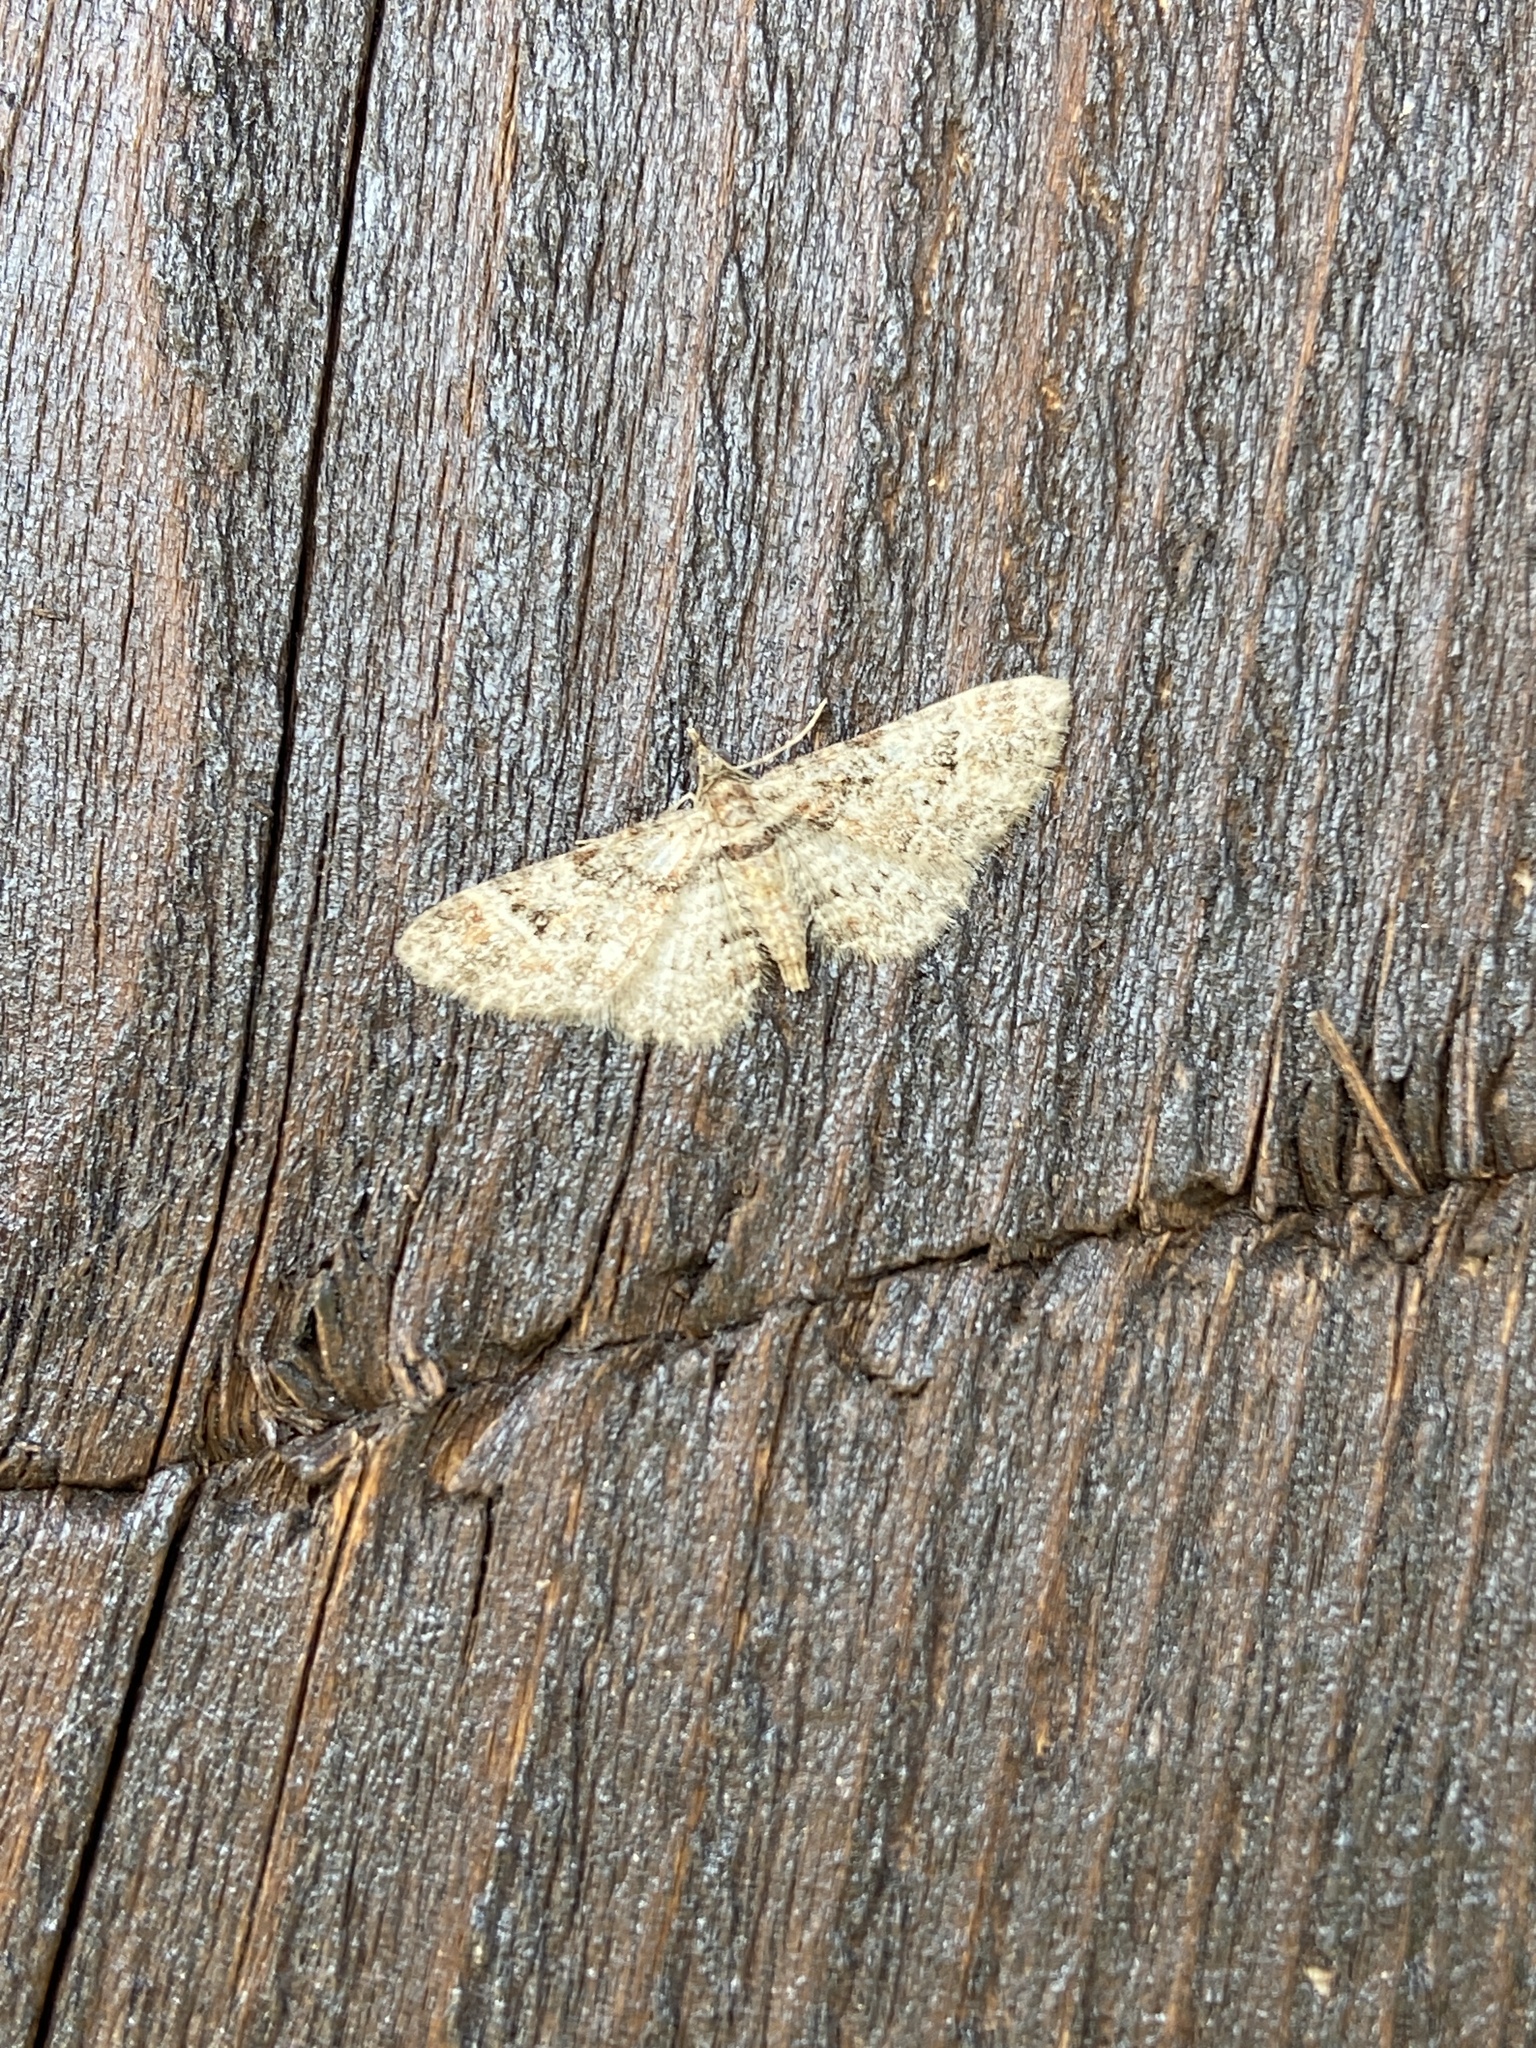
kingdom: Animalia
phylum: Arthropoda
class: Insecta
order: Lepidoptera
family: Geometridae
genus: Gymnoscelis
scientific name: Gymnoscelis rufifasciata
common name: Double-striped pug
